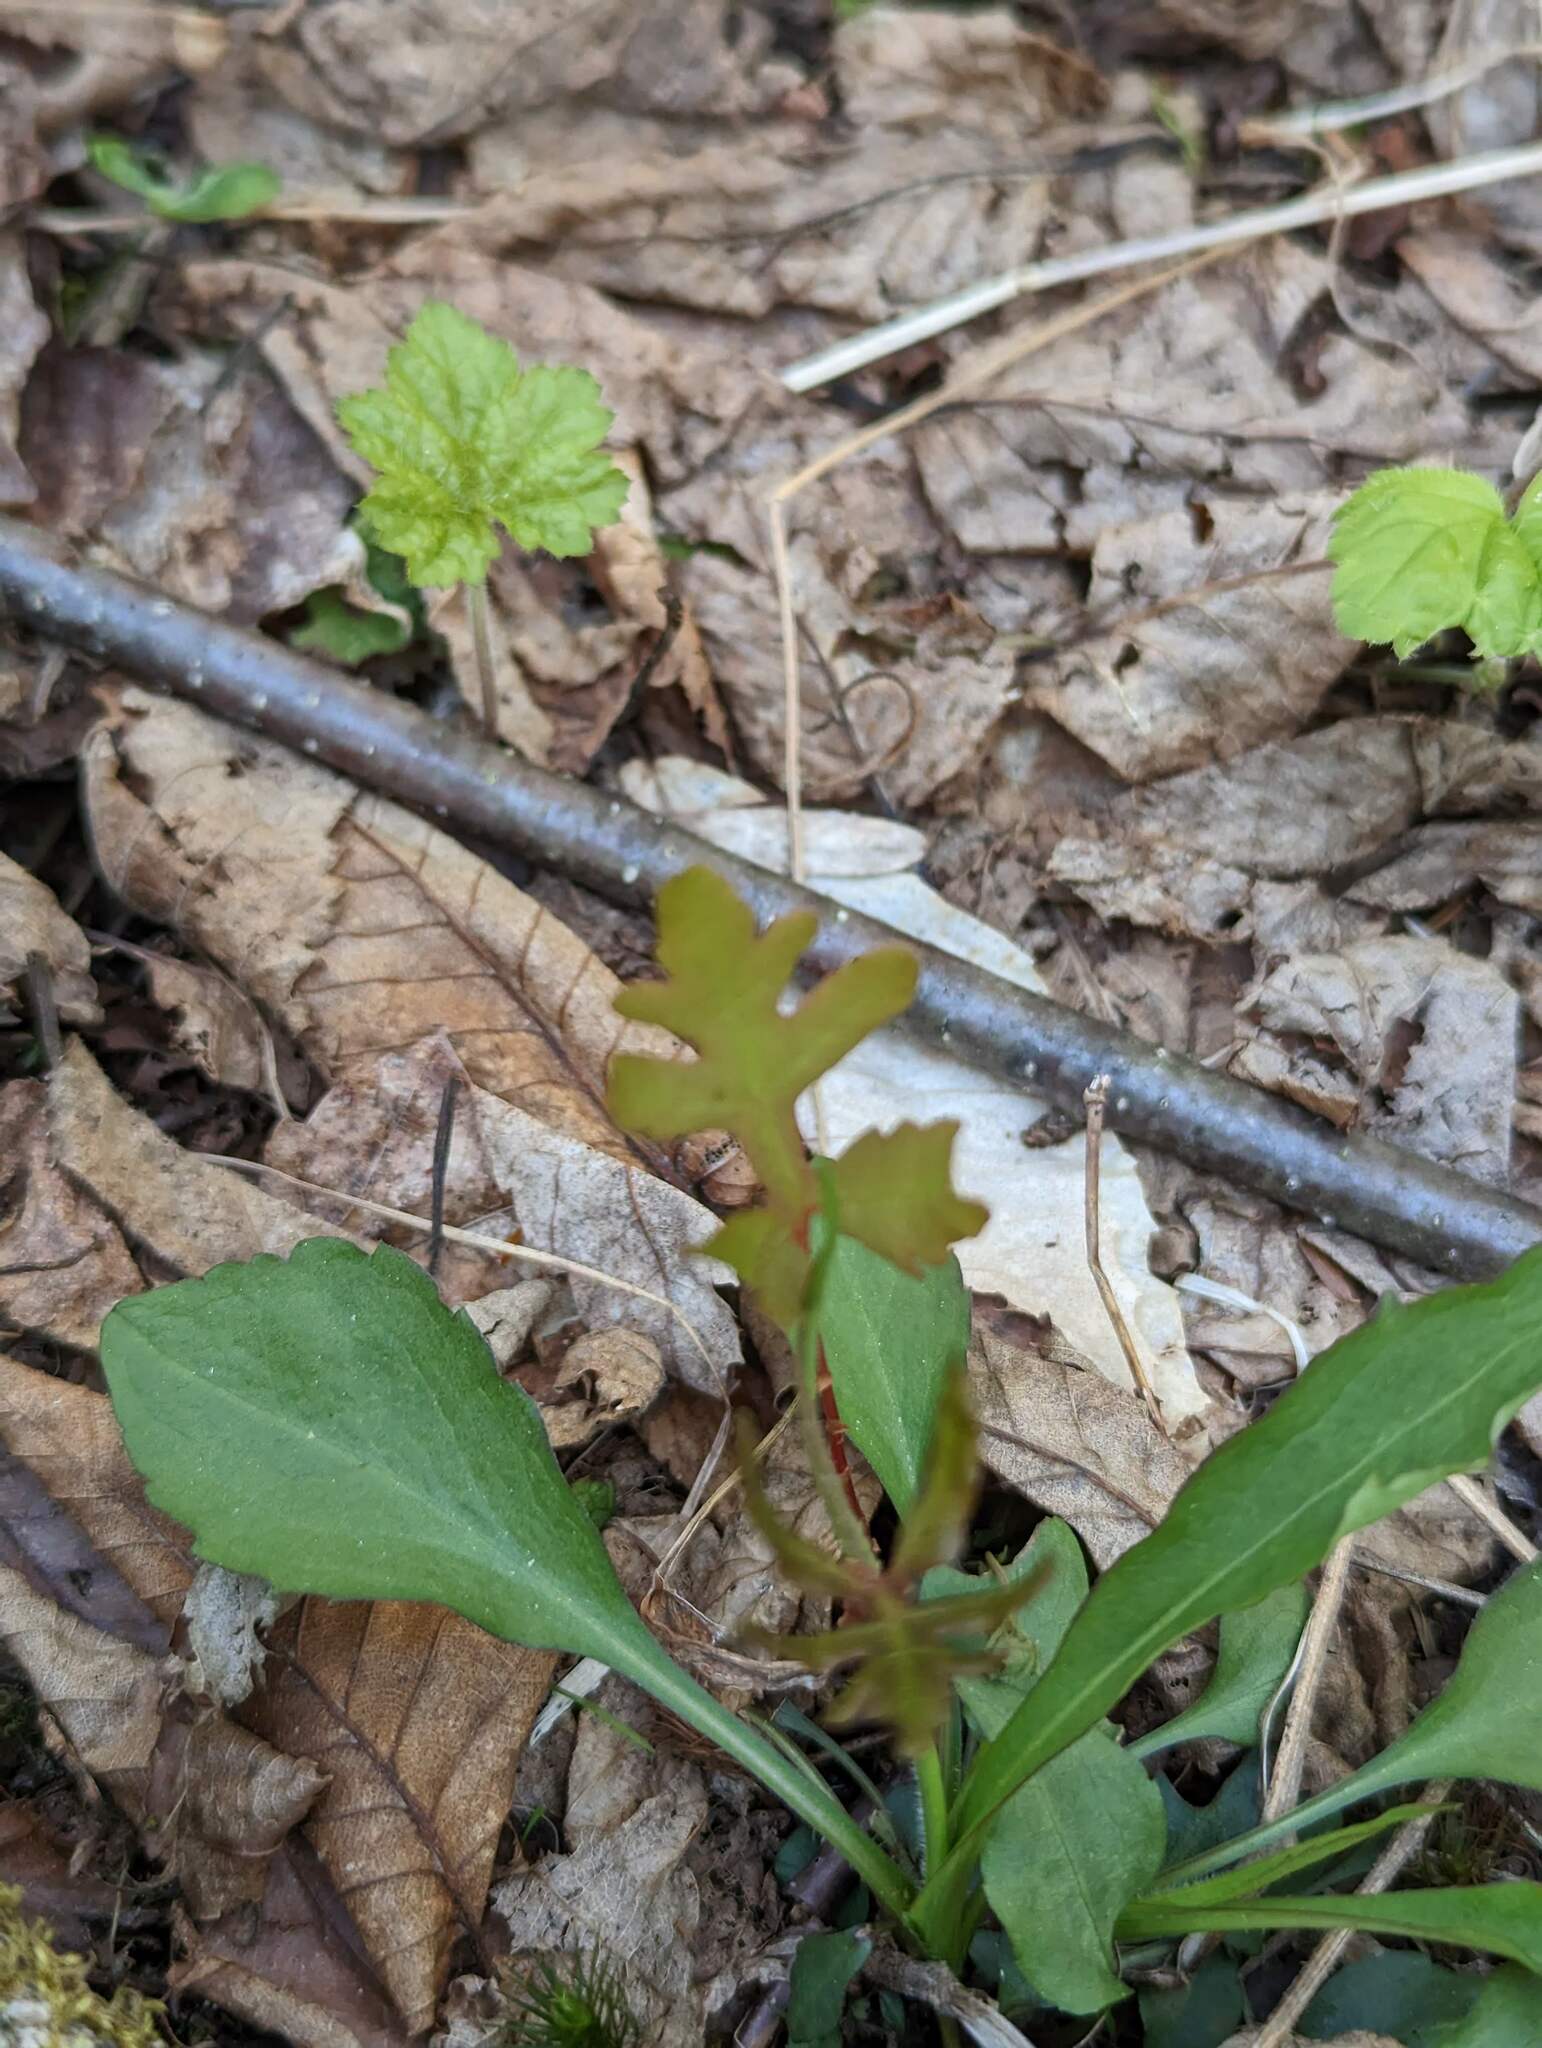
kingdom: Plantae
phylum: Tracheophyta
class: Polypodiopsida
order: Polypodiales
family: Onocleaceae
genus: Onoclea
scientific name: Onoclea sensibilis
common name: Sensitive fern
